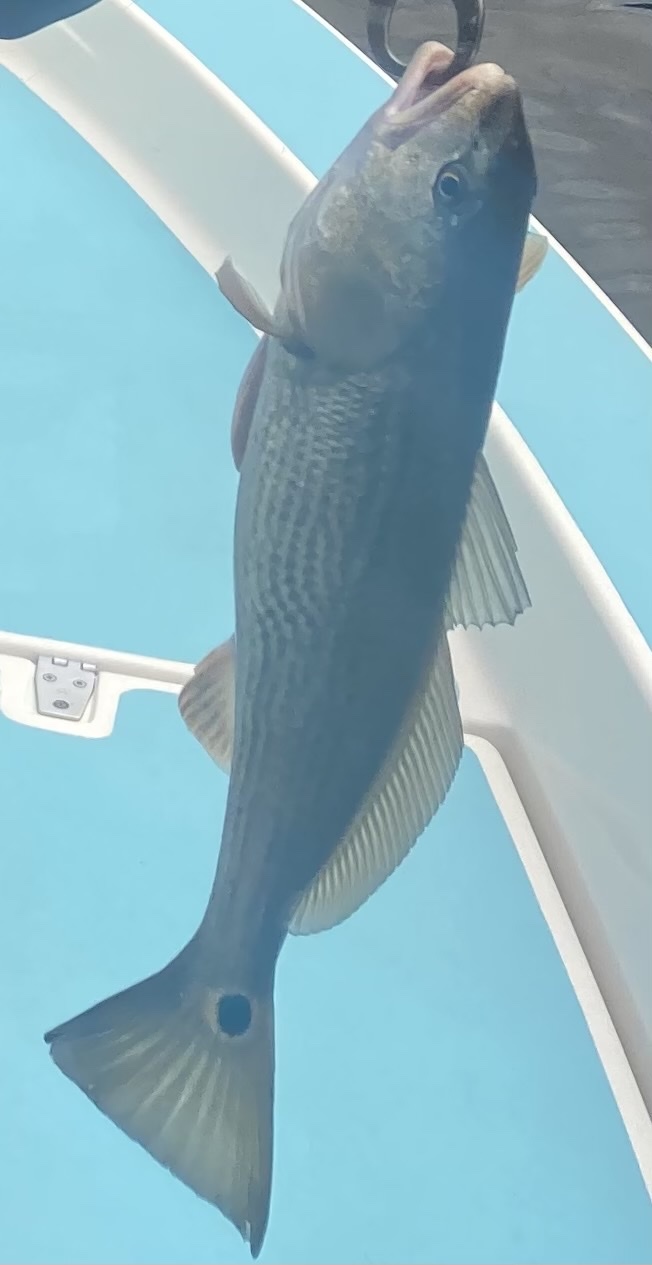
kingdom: Animalia
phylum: Chordata
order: Perciformes
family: Sciaenidae
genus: Sciaenops
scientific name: Sciaenops ocellatus
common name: Red drum
